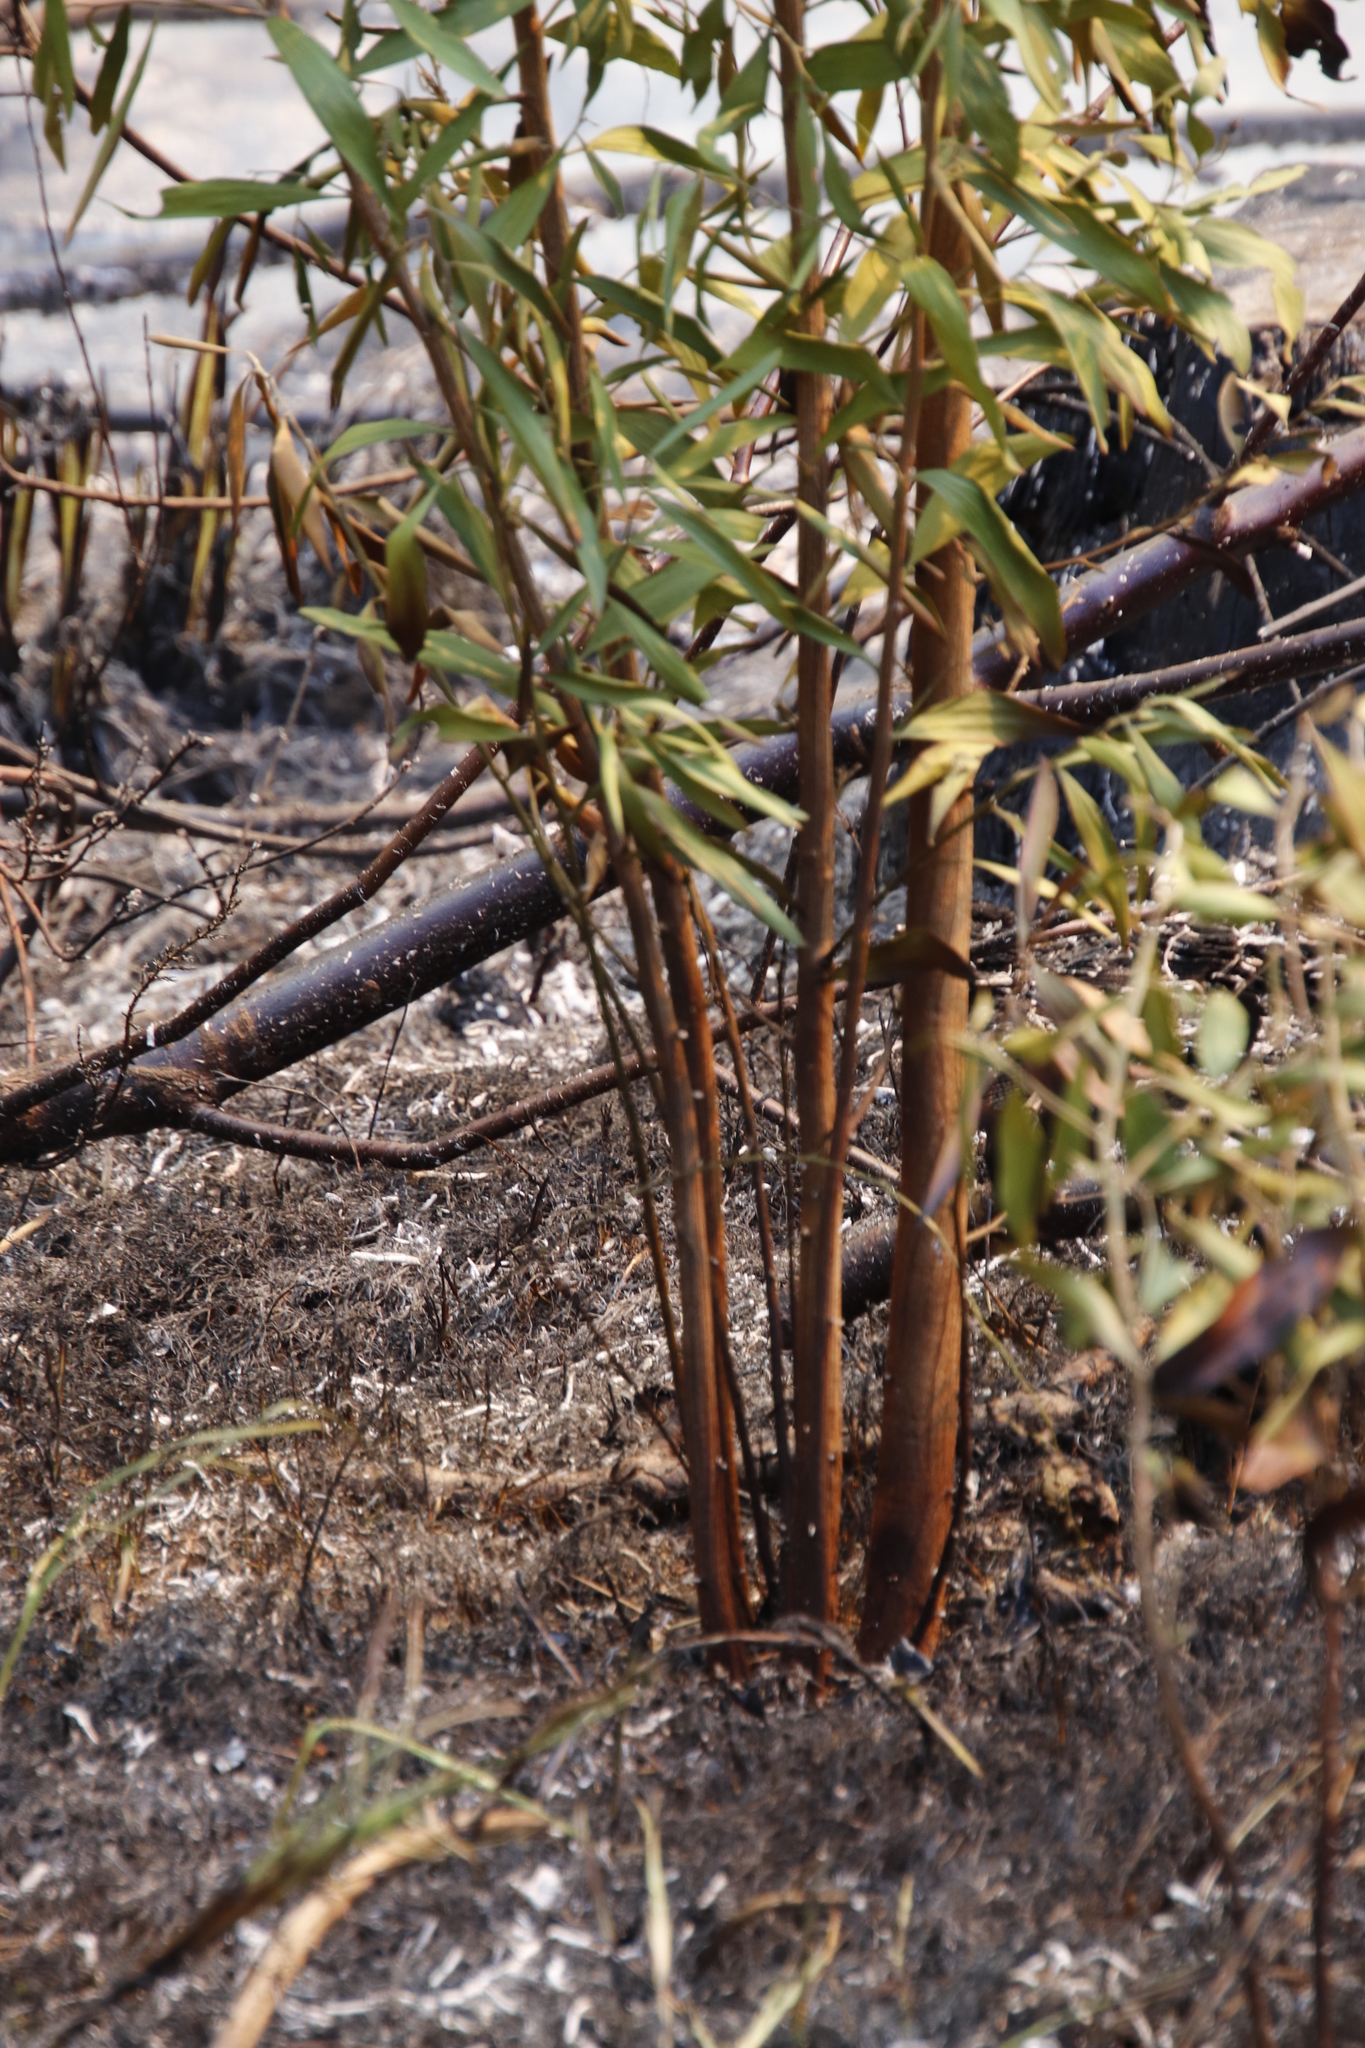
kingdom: Plantae
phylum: Tracheophyta
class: Magnoliopsida
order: Fabales
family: Fabaceae
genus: Acacia
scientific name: Acacia implexa
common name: Black wattle
